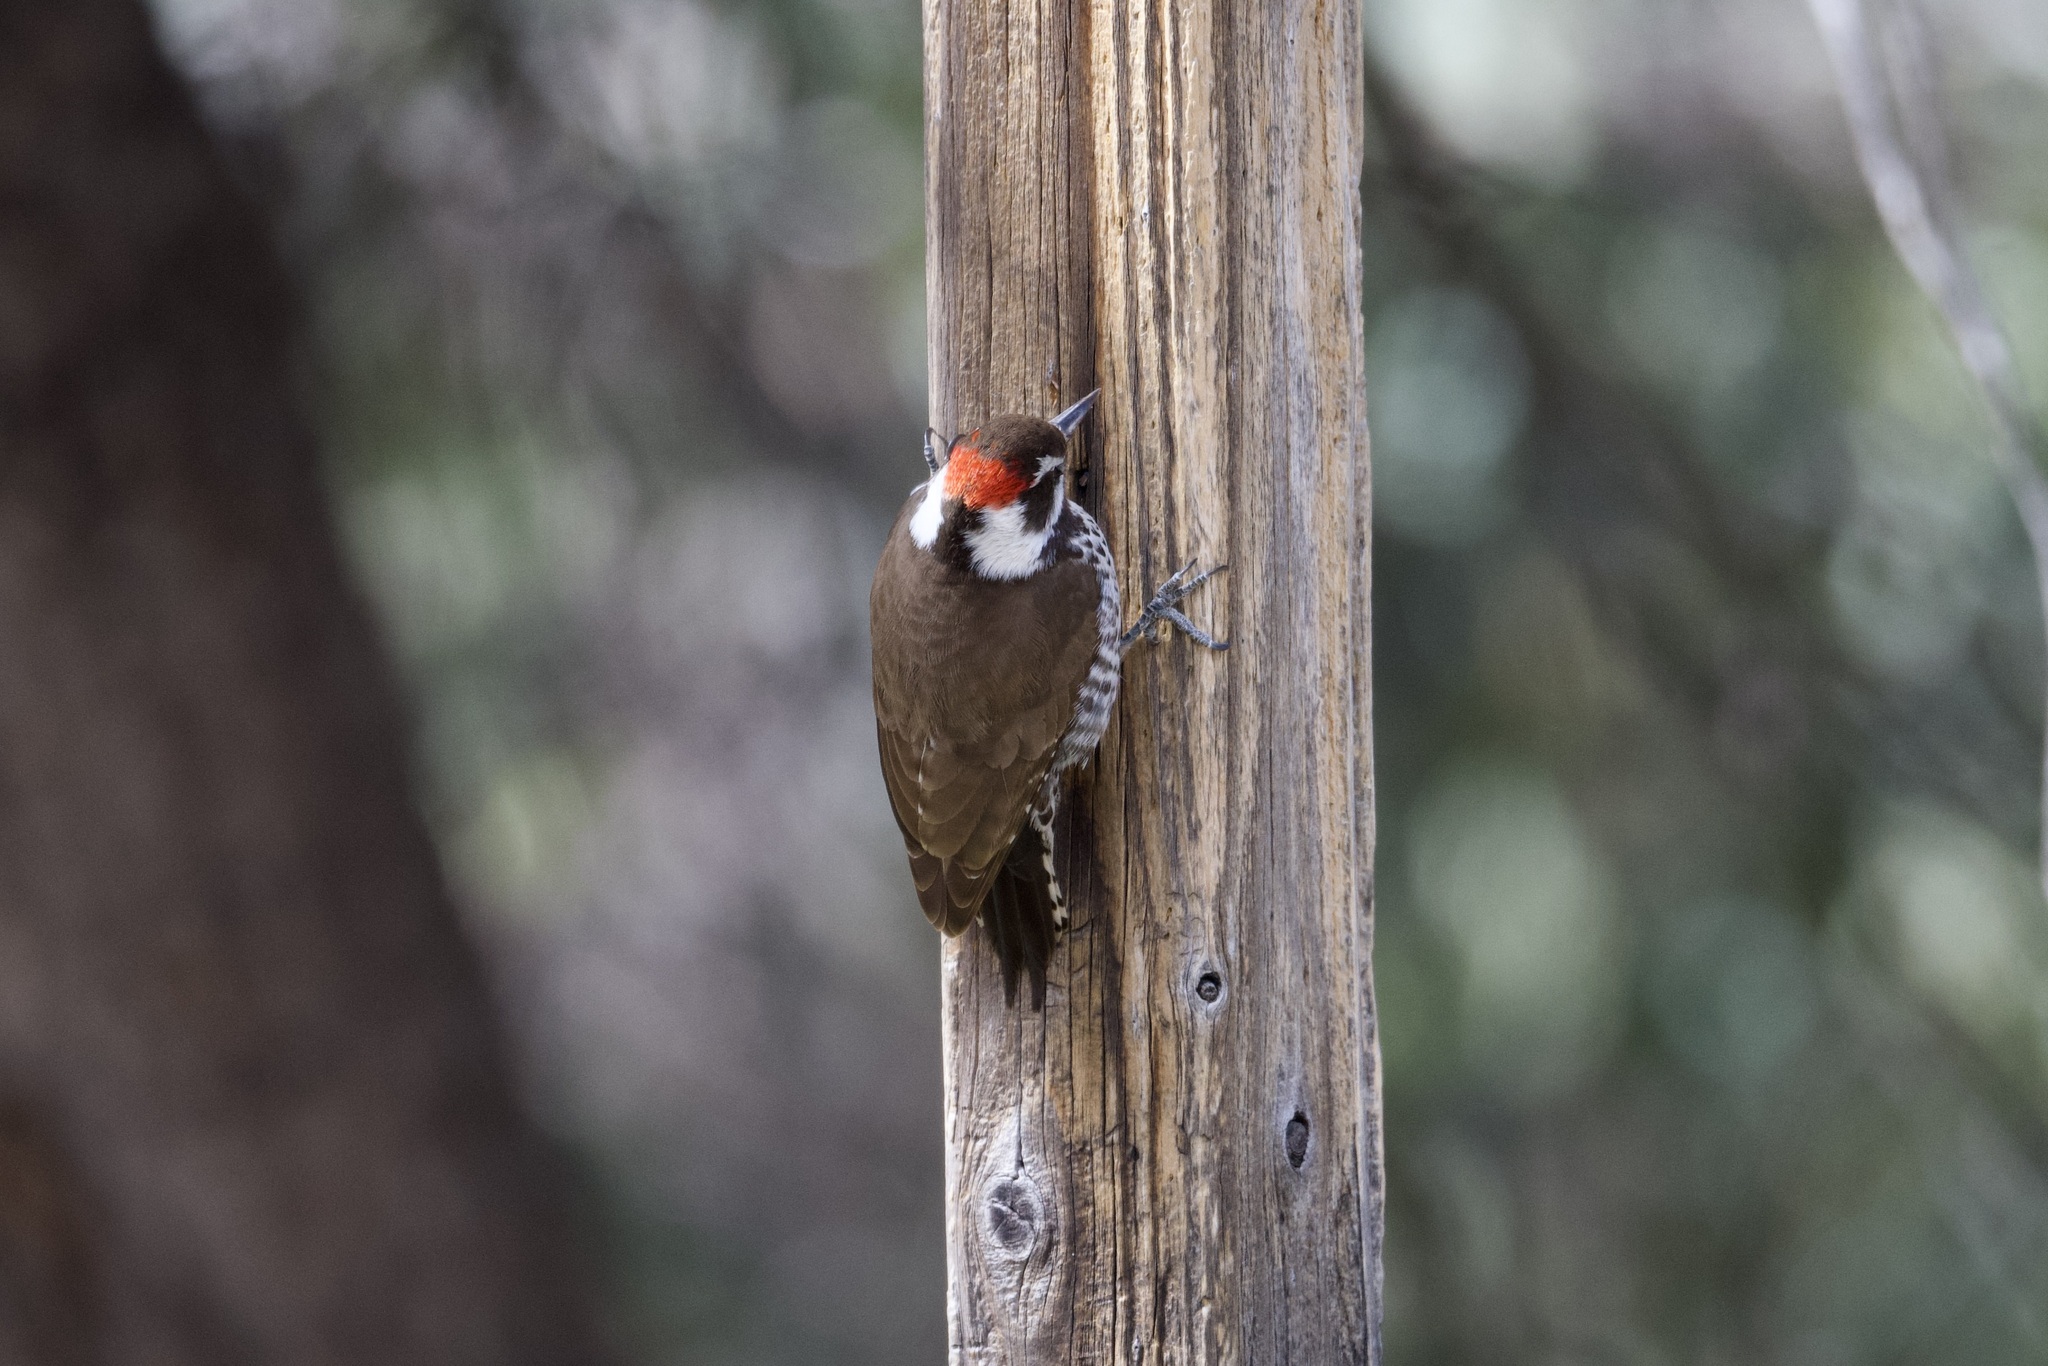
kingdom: Animalia
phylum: Chordata
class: Aves
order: Piciformes
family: Picidae
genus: Leuconotopicus
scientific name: Leuconotopicus arizonae
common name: Arizona woodpecker
